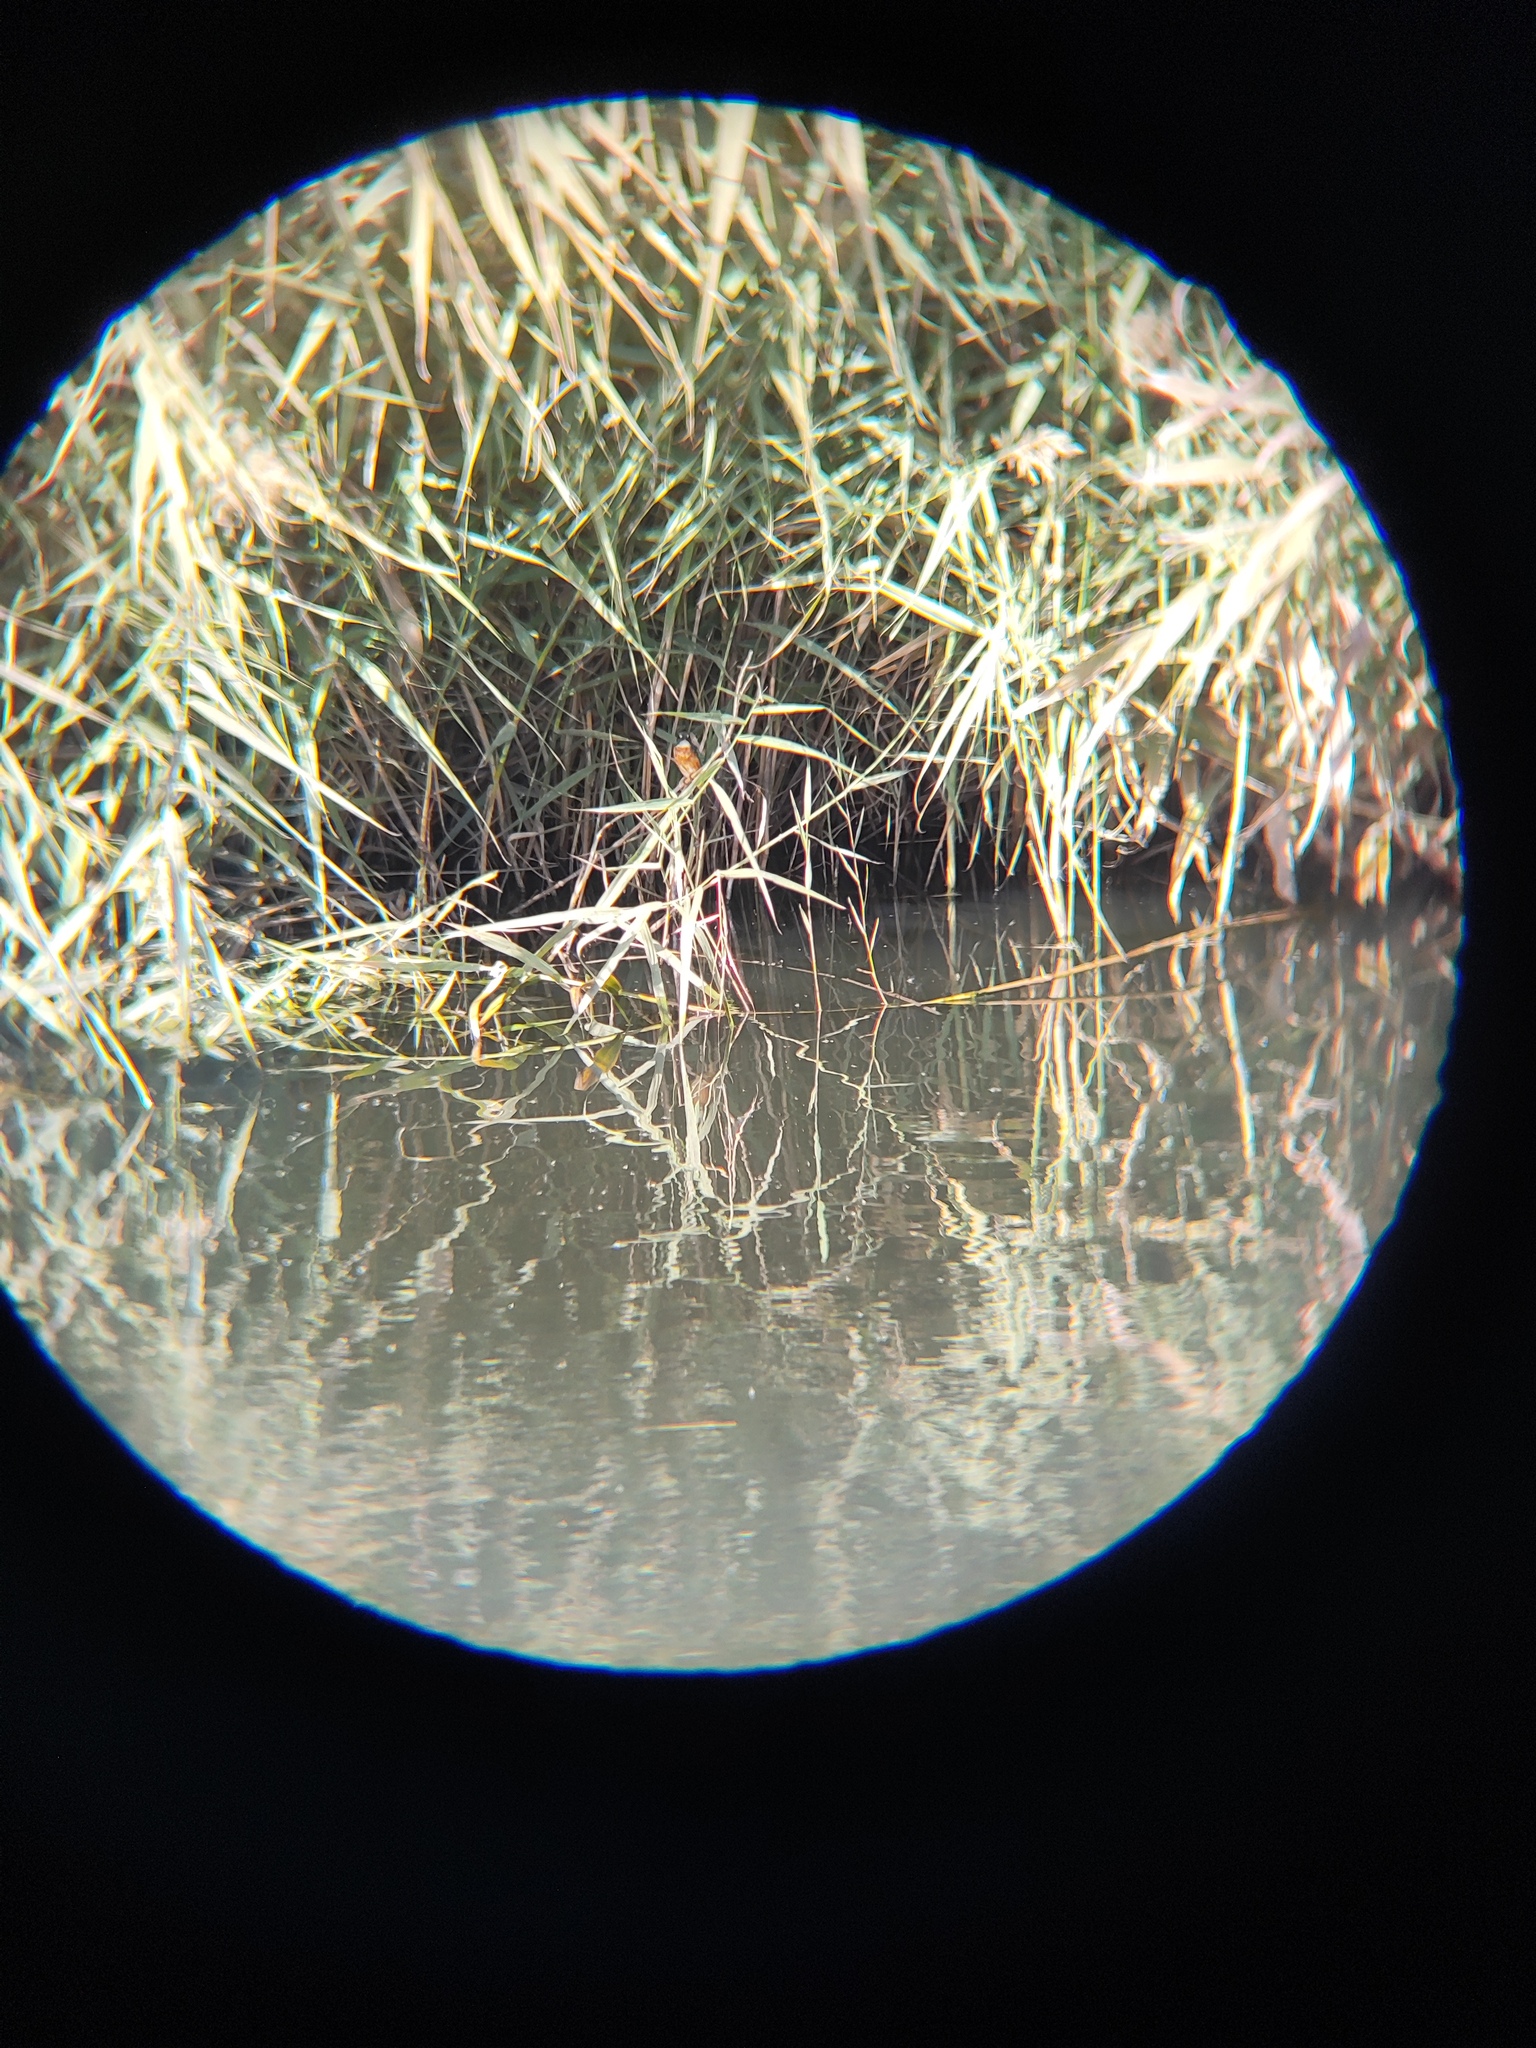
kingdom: Animalia
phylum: Chordata
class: Aves
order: Coraciiformes
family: Alcedinidae
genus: Alcedo
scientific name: Alcedo atthis
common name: Common kingfisher
